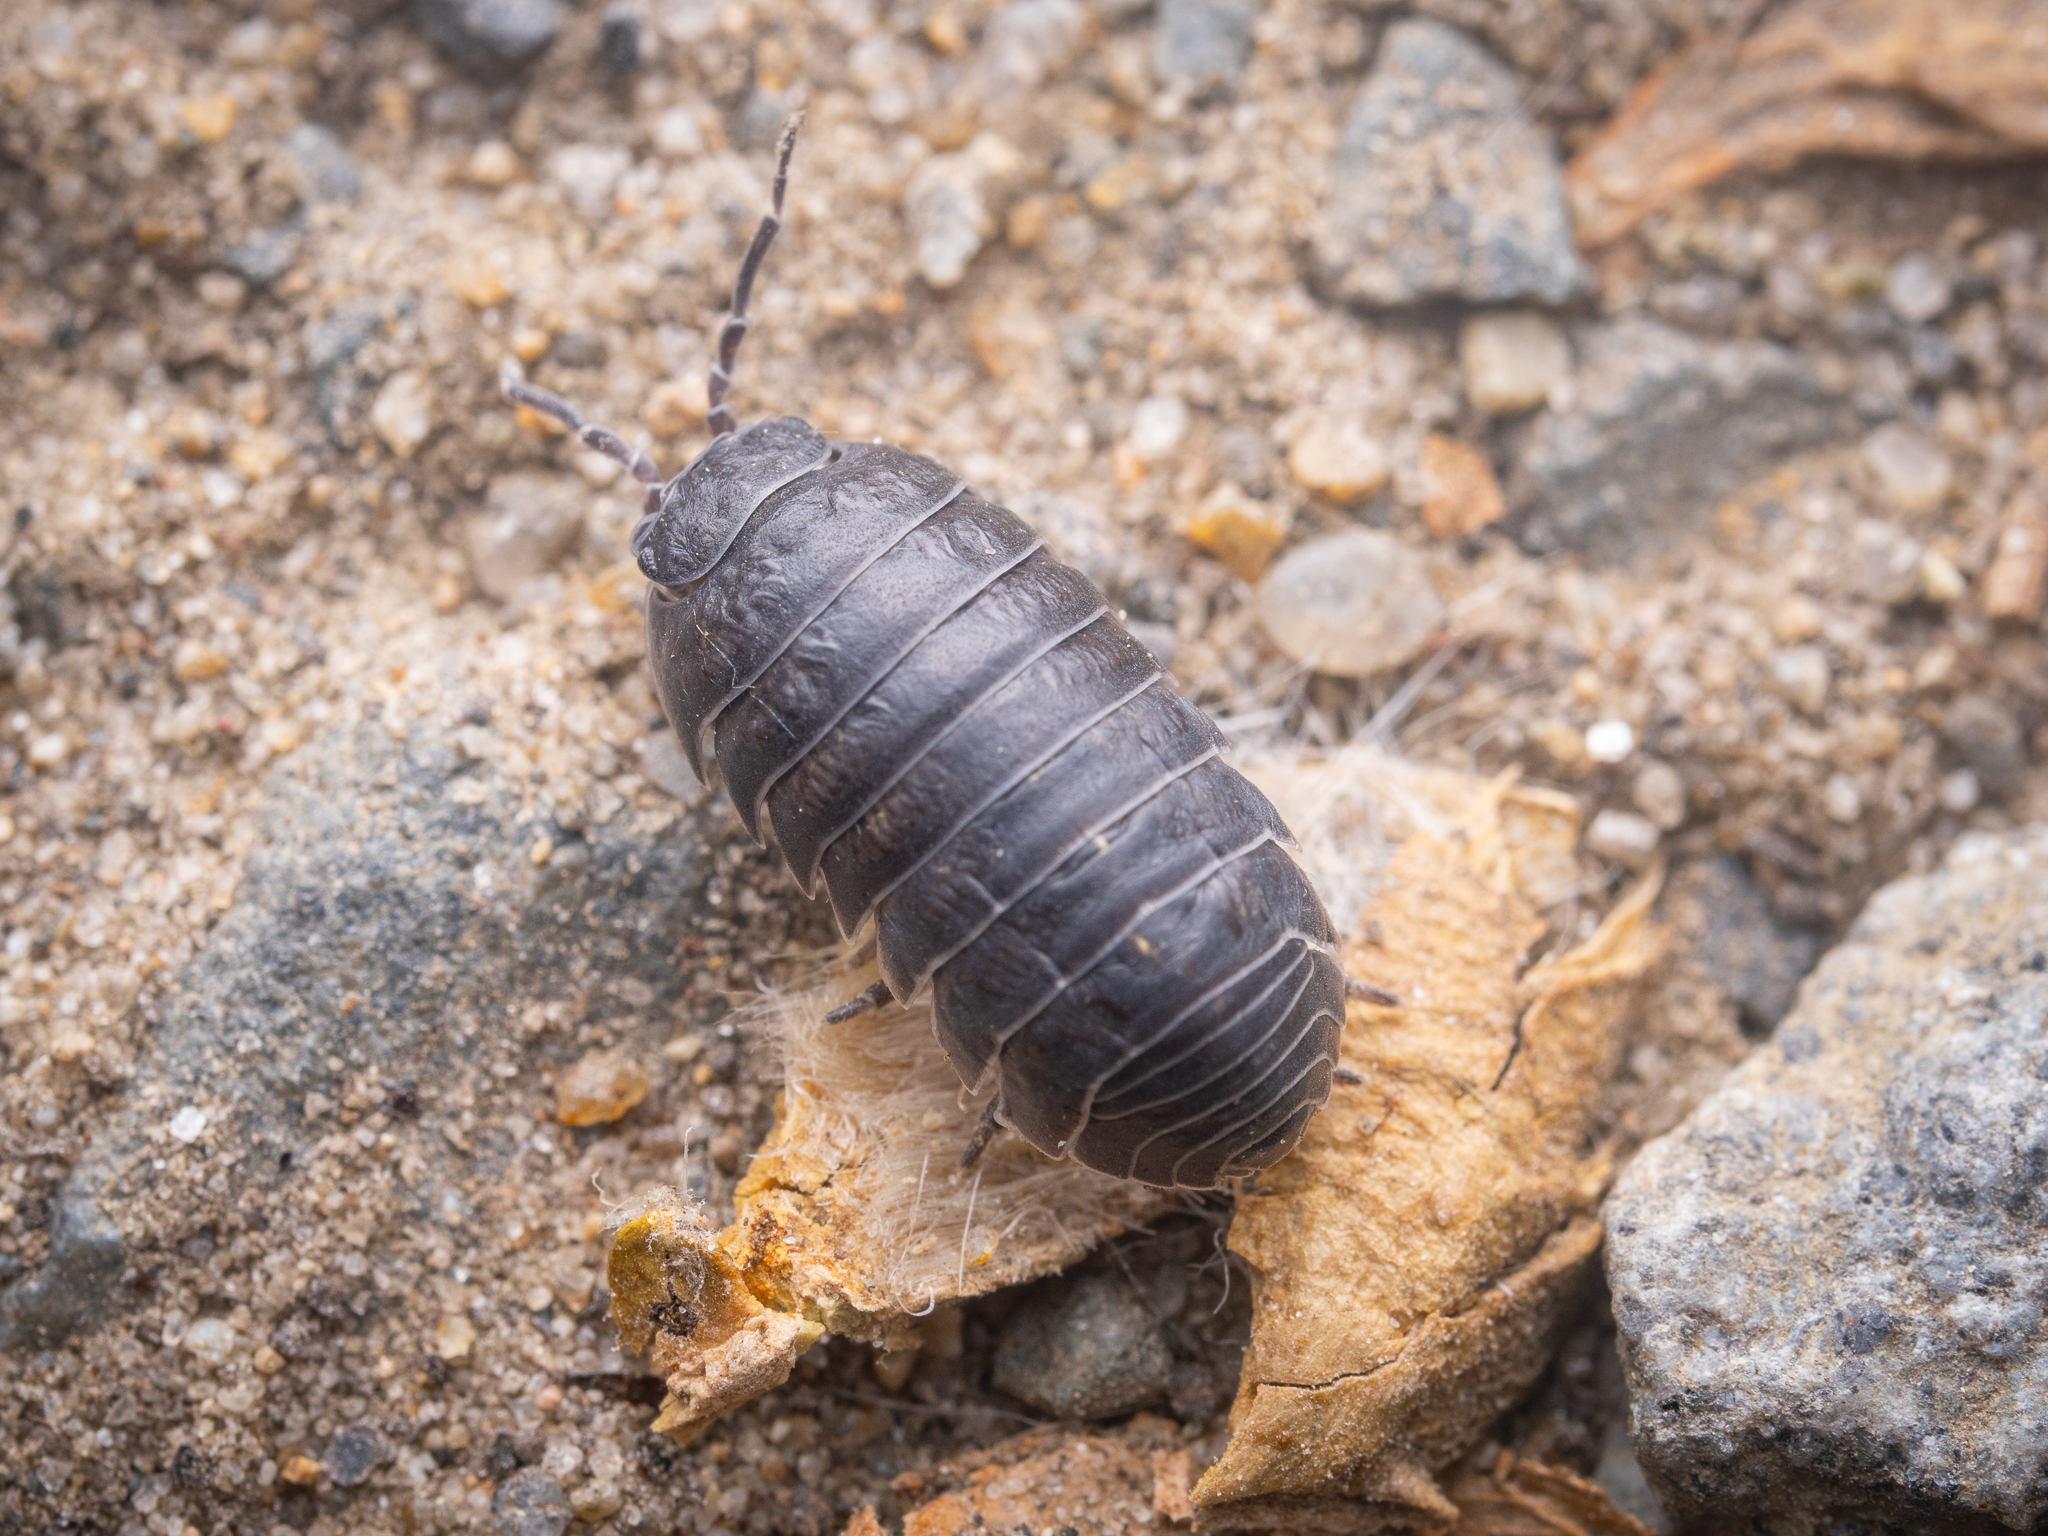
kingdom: Animalia
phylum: Arthropoda
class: Malacostraca
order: Isopoda
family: Armadillidiidae
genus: Armadillidium
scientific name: Armadillidium vulgare
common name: Common pill woodlouse
